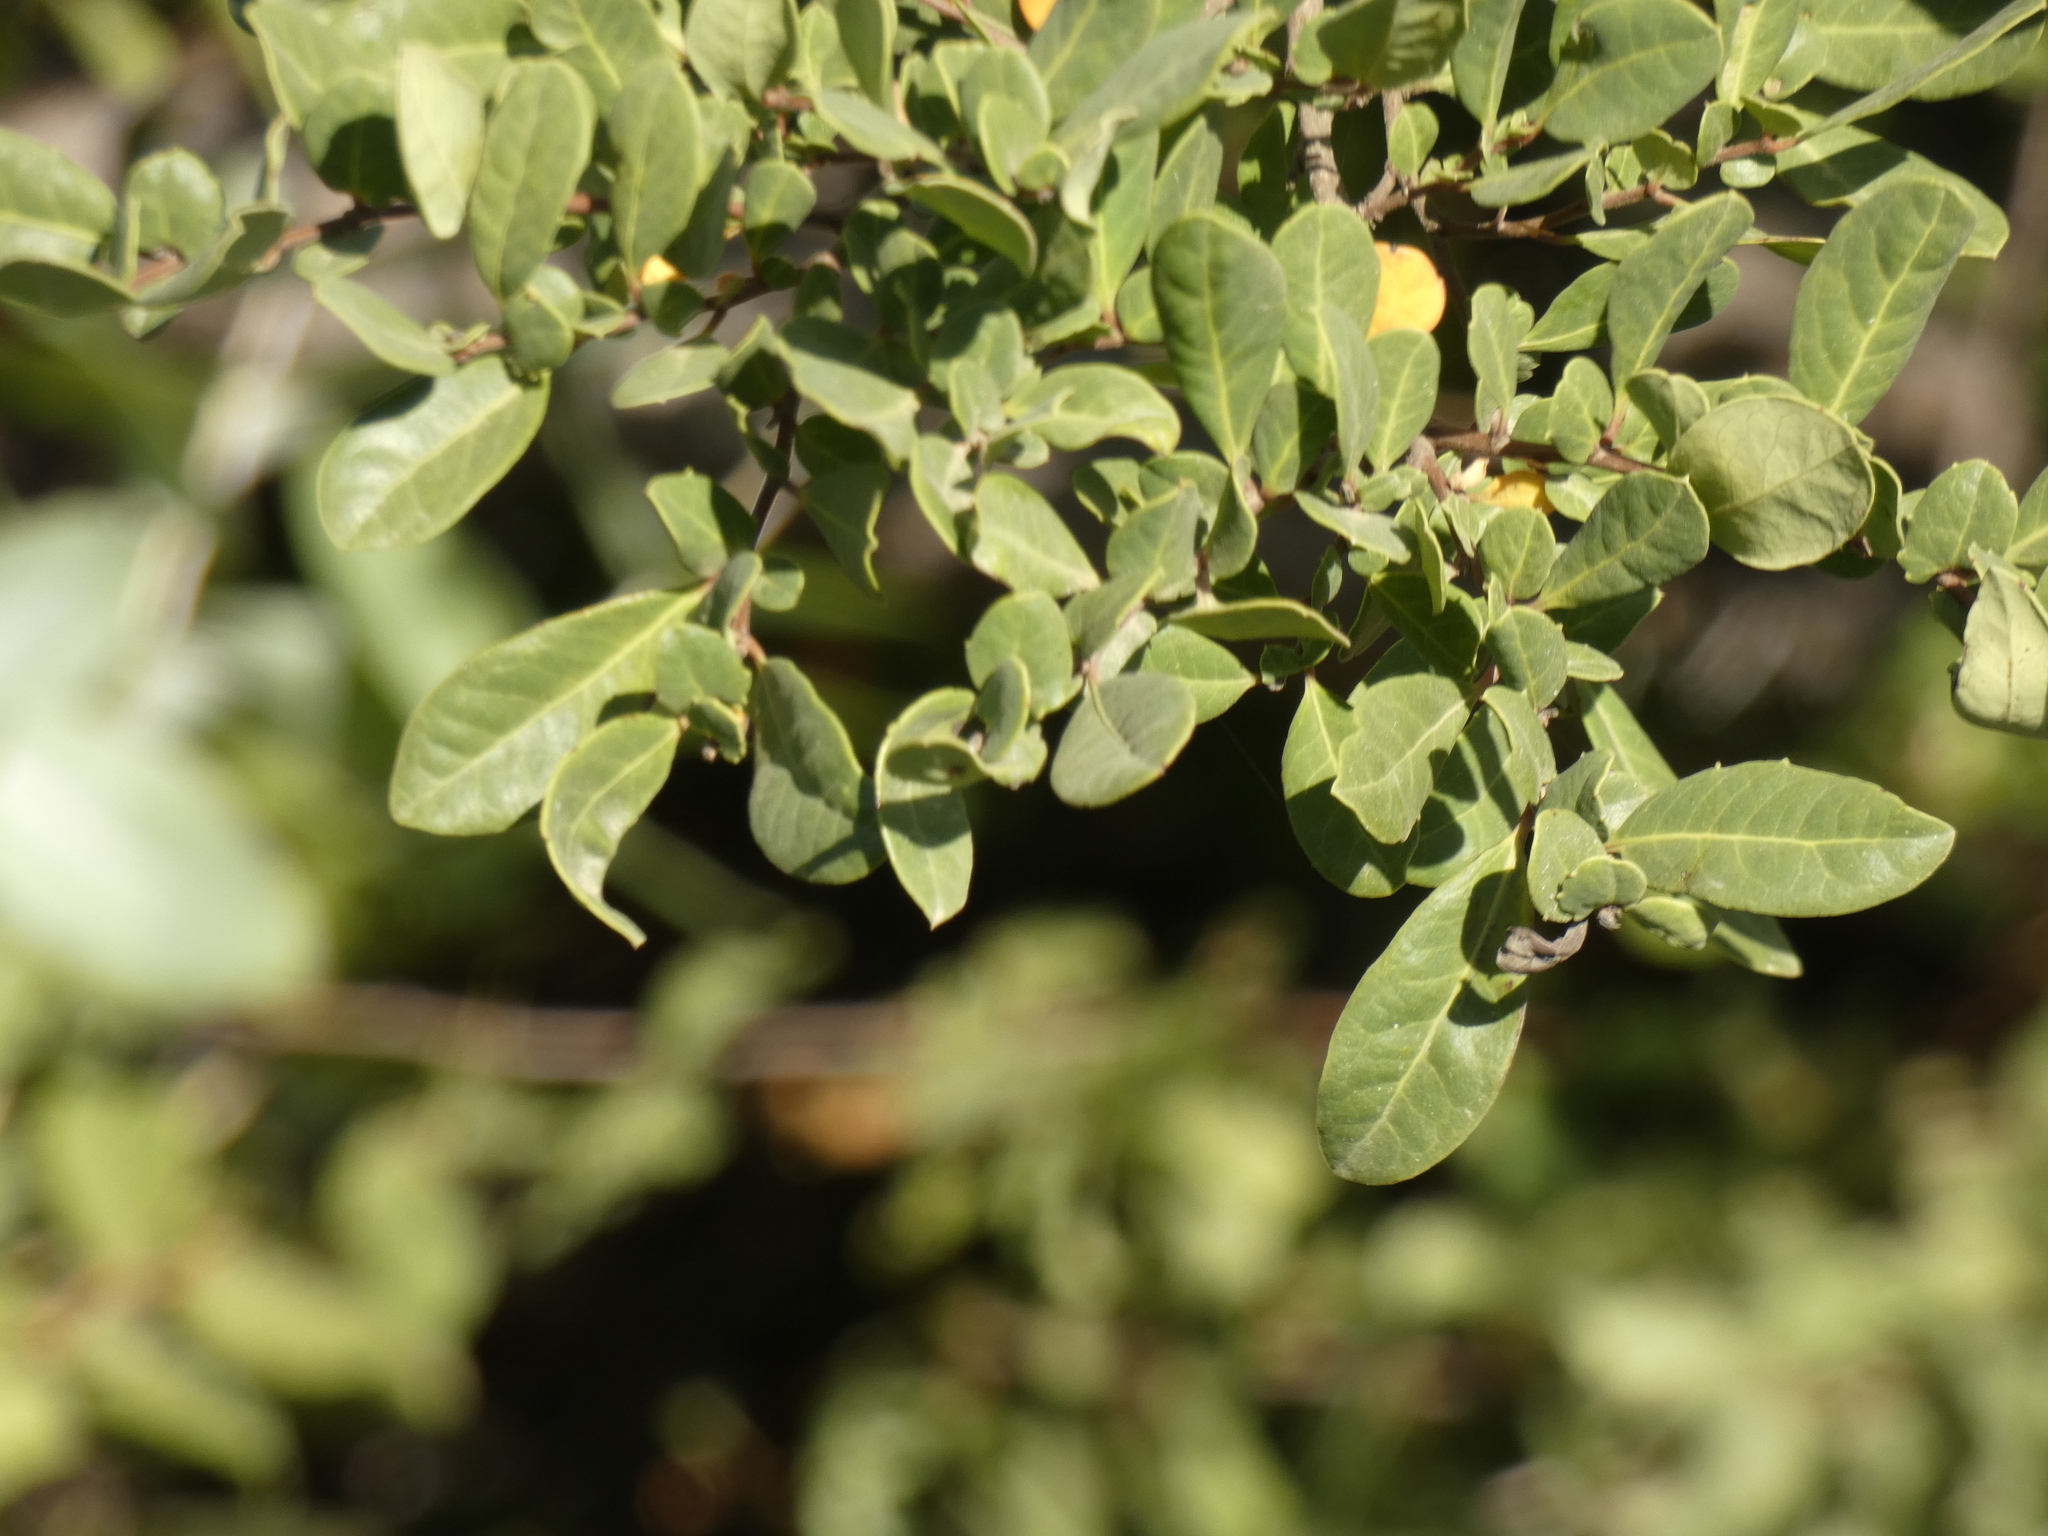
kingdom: Plantae
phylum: Tracheophyta
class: Magnoliopsida
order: Malpighiales
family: Salicaceae
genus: Azara
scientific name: Azara integrifolia
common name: Goldspire
